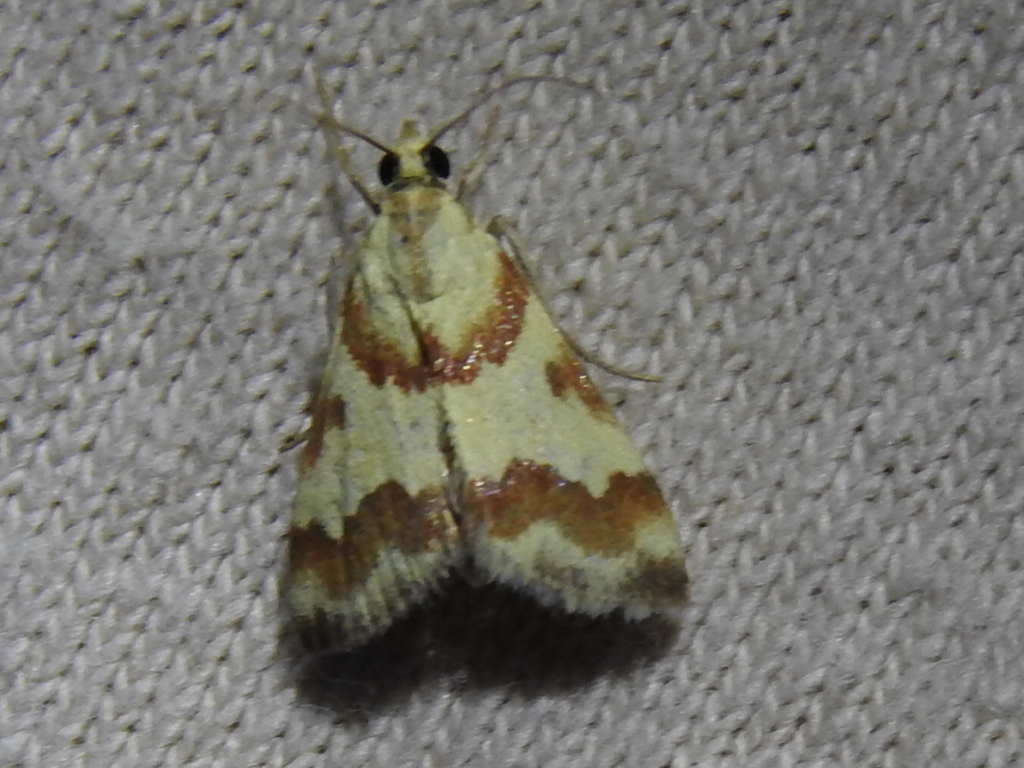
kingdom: Animalia
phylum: Arthropoda
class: Insecta
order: Lepidoptera
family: Crambidae
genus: Noctuelia
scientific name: Noctuelia Mimoschinia rufofascialis
